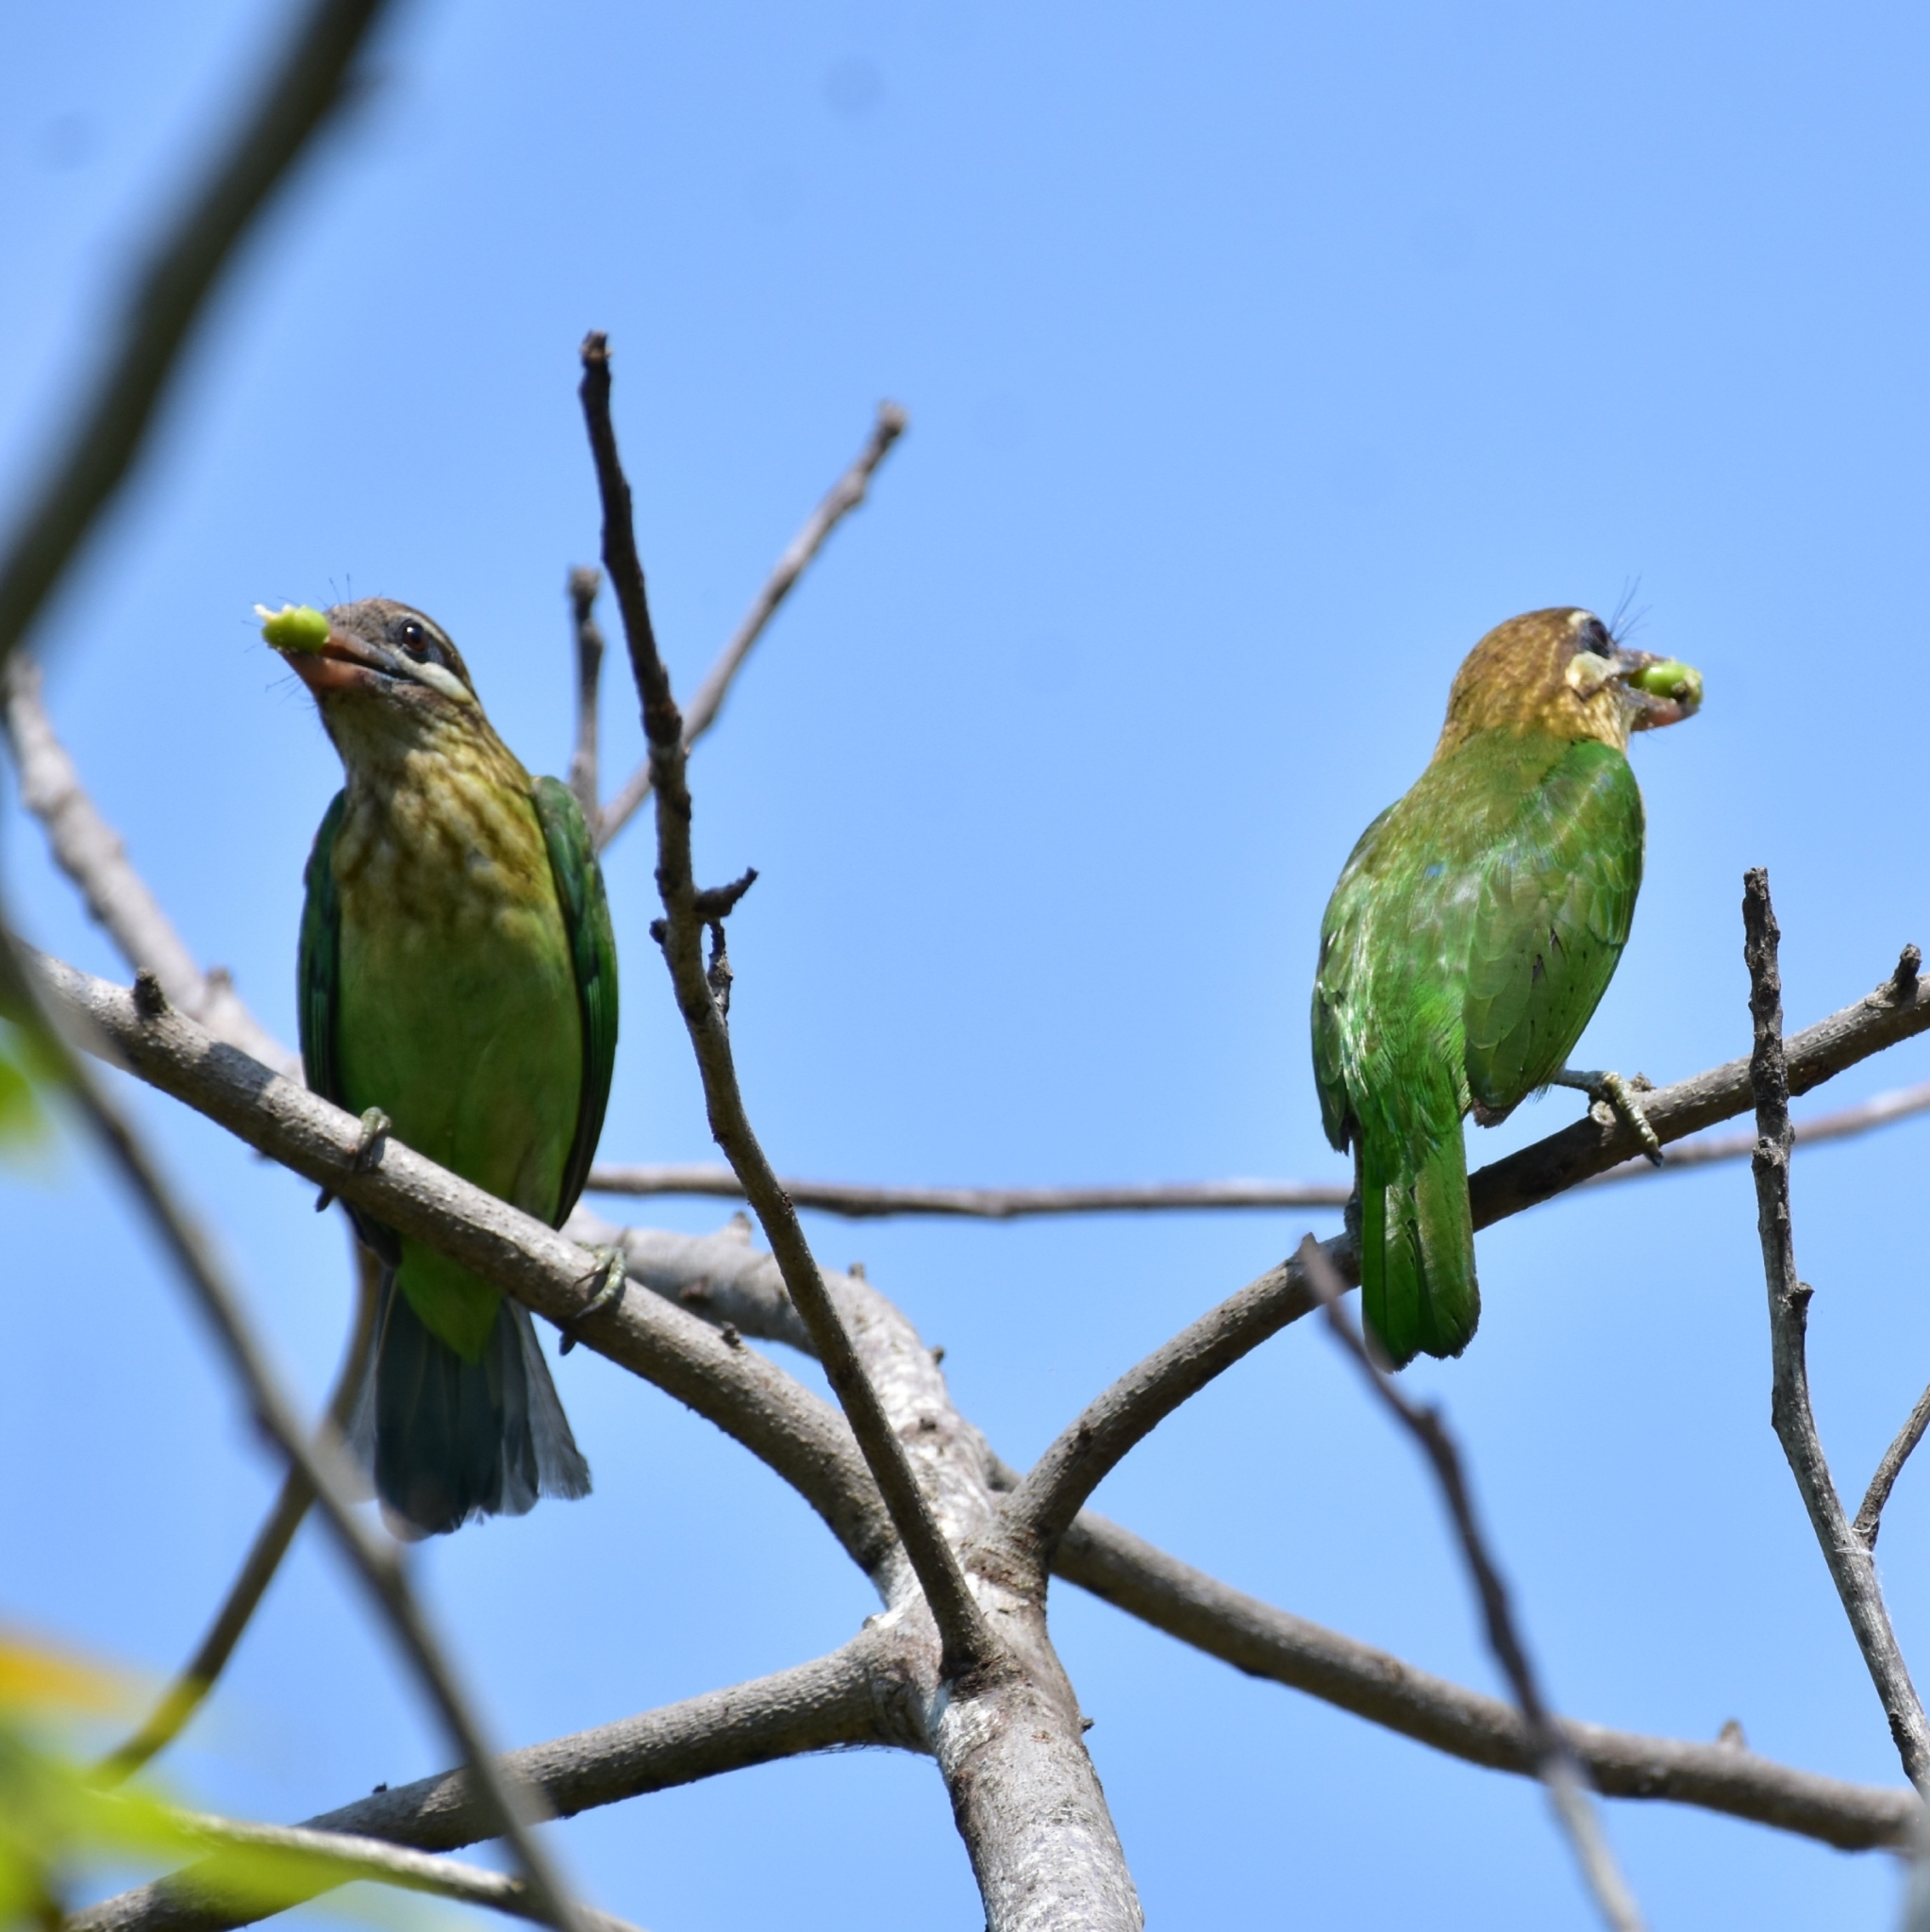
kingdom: Animalia
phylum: Chordata
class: Aves
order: Piciformes
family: Megalaimidae
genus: Psilopogon
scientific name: Psilopogon viridis
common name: White-cheeked barbet
